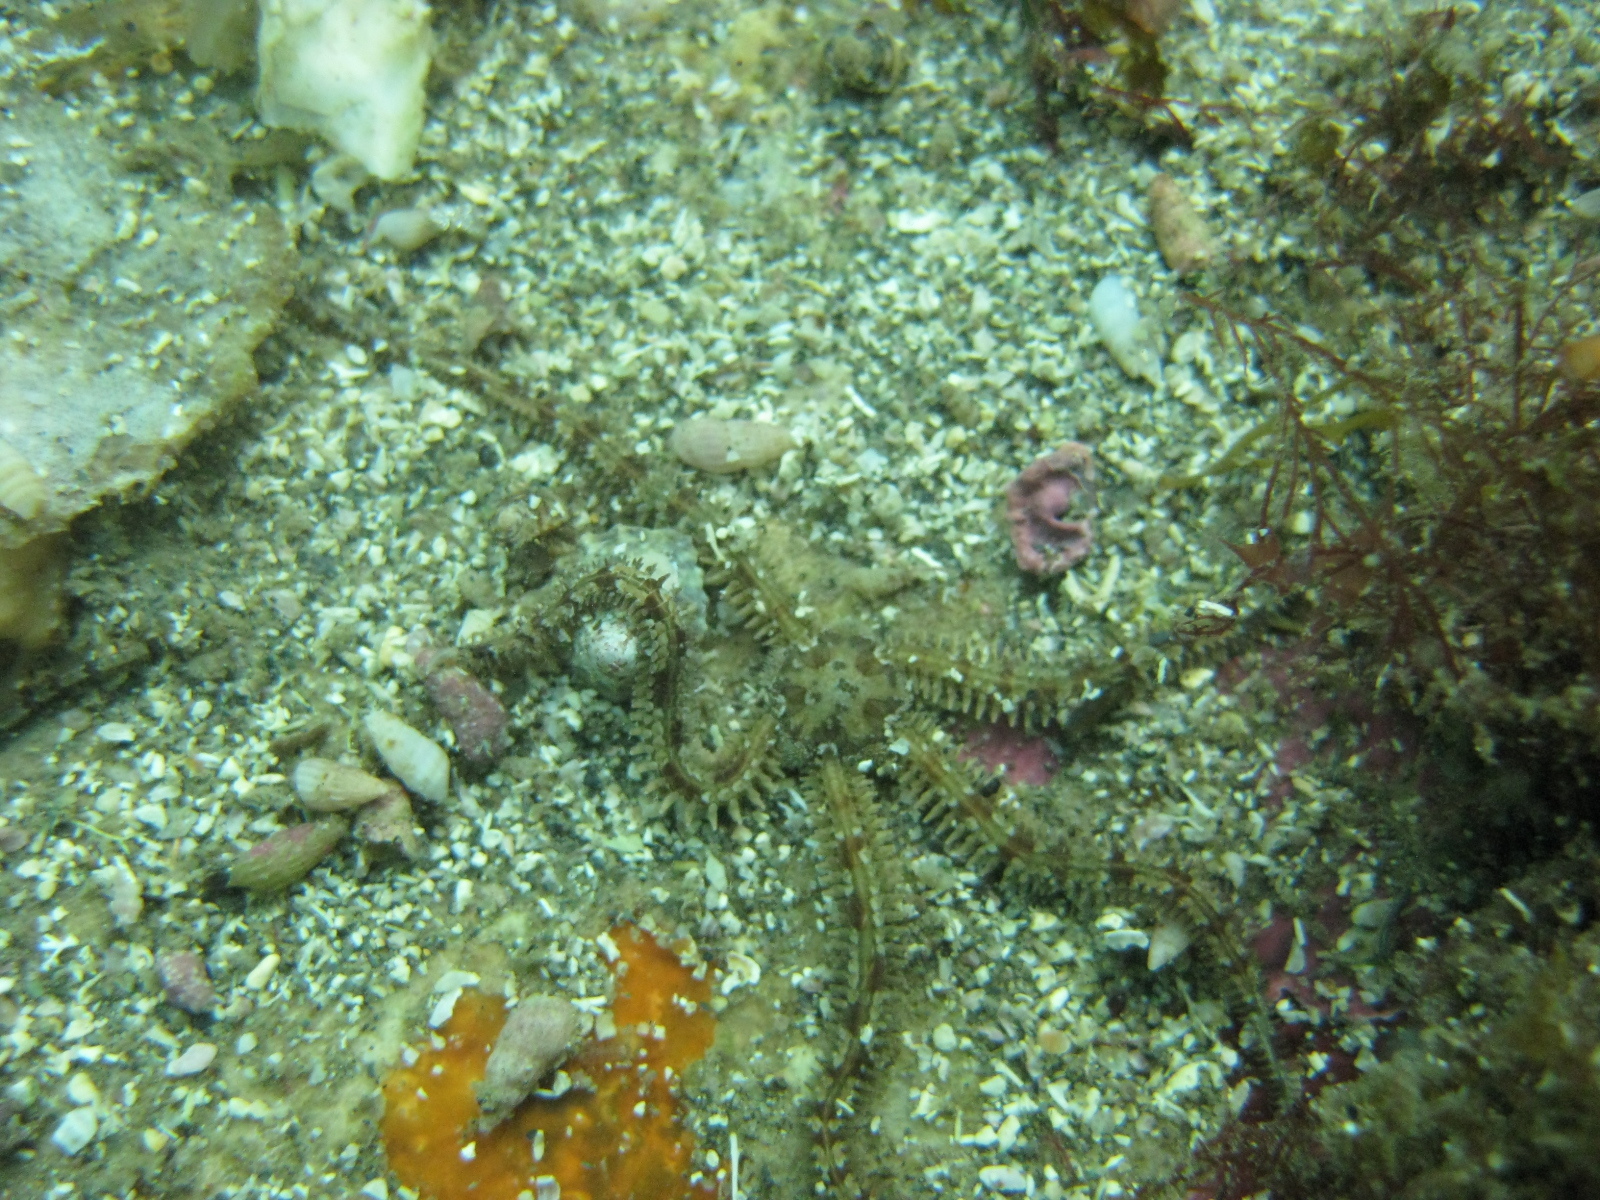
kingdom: Animalia
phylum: Echinodermata
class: Ophiuroidea
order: Amphilepidida
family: Ophiactidae
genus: Ophiactis
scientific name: Ophiactis resiliens
